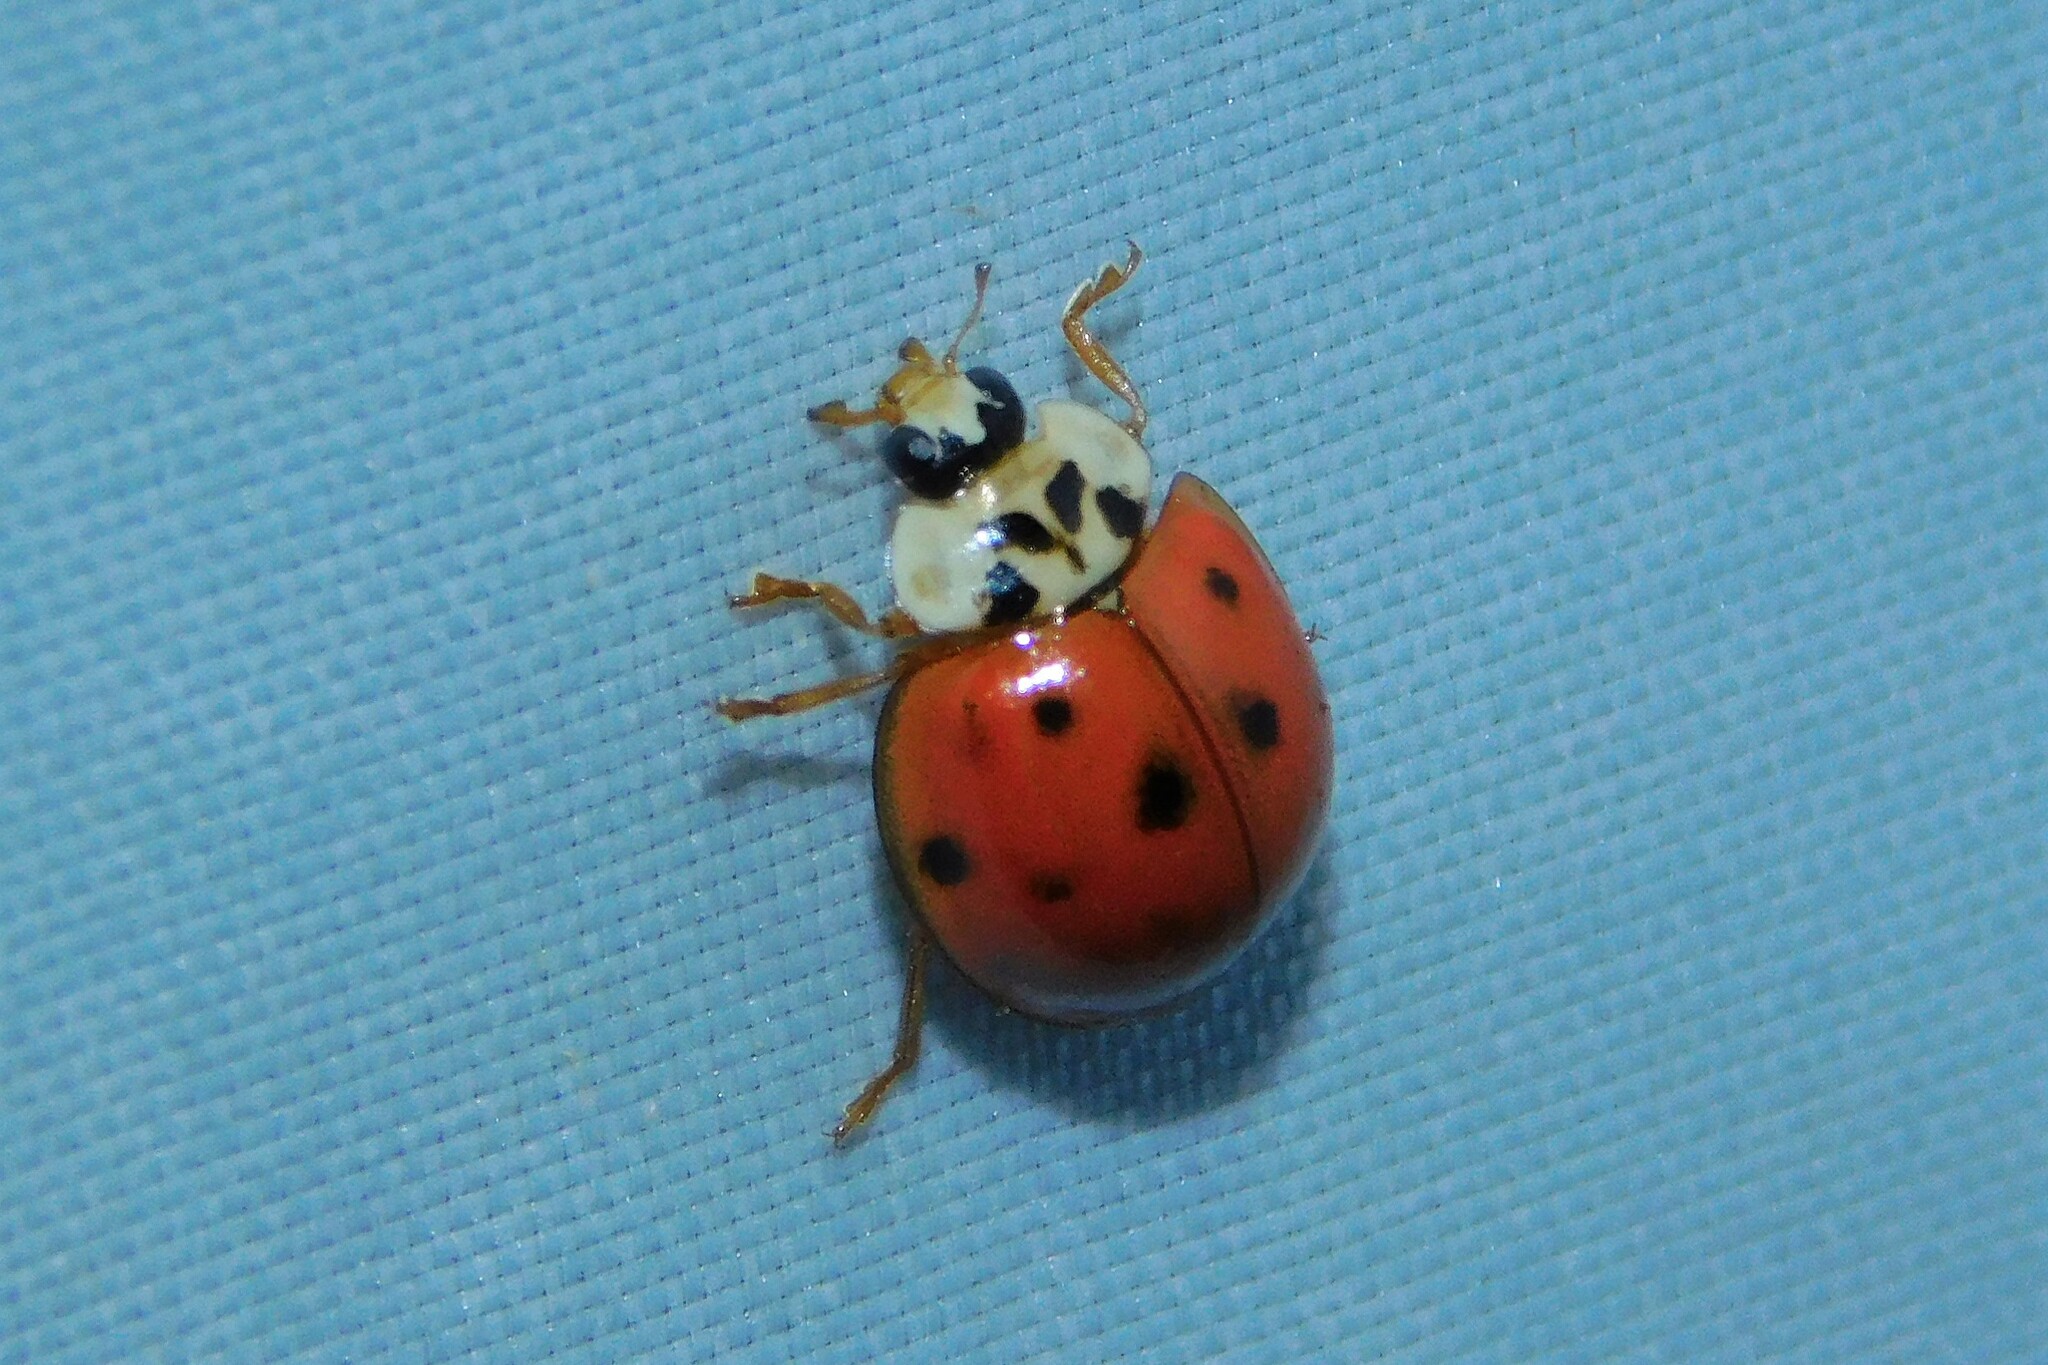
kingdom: Animalia
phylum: Arthropoda
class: Insecta
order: Coleoptera
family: Coccinellidae
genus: Harmonia
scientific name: Harmonia axyridis
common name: Harlequin ladybird
